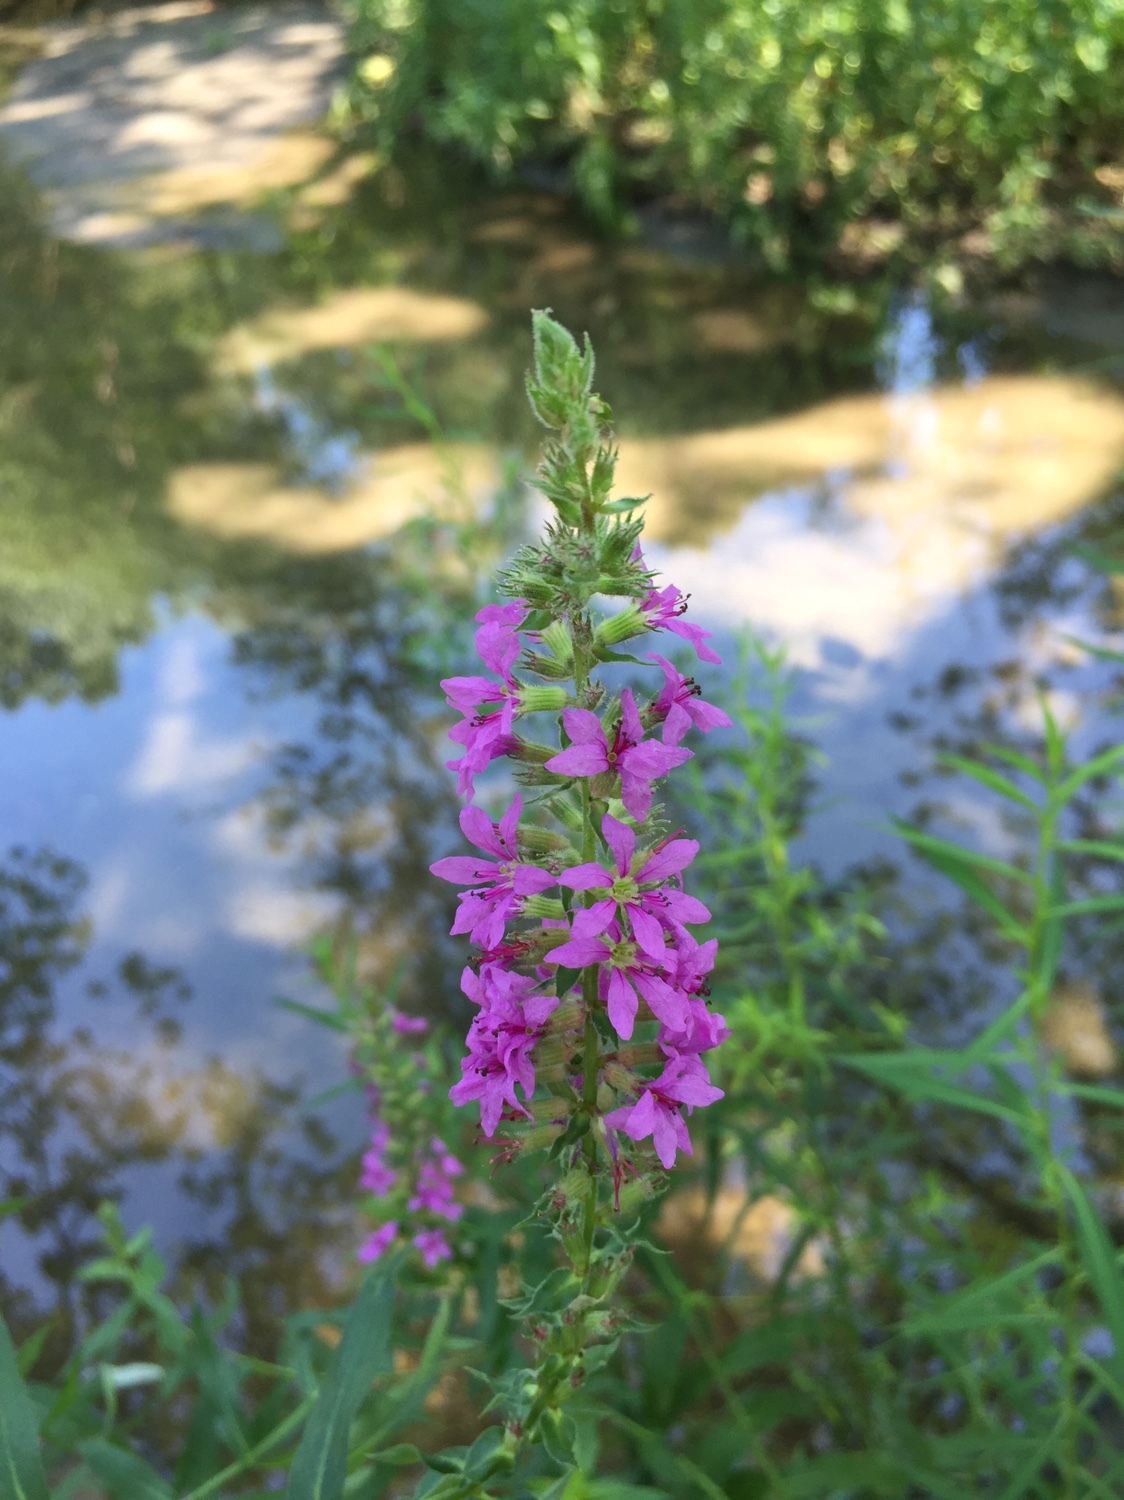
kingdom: Plantae
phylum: Tracheophyta
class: Magnoliopsida
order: Myrtales
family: Lythraceae
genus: Lythrum
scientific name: Lythrum salicaria
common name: Purple loosestrife
